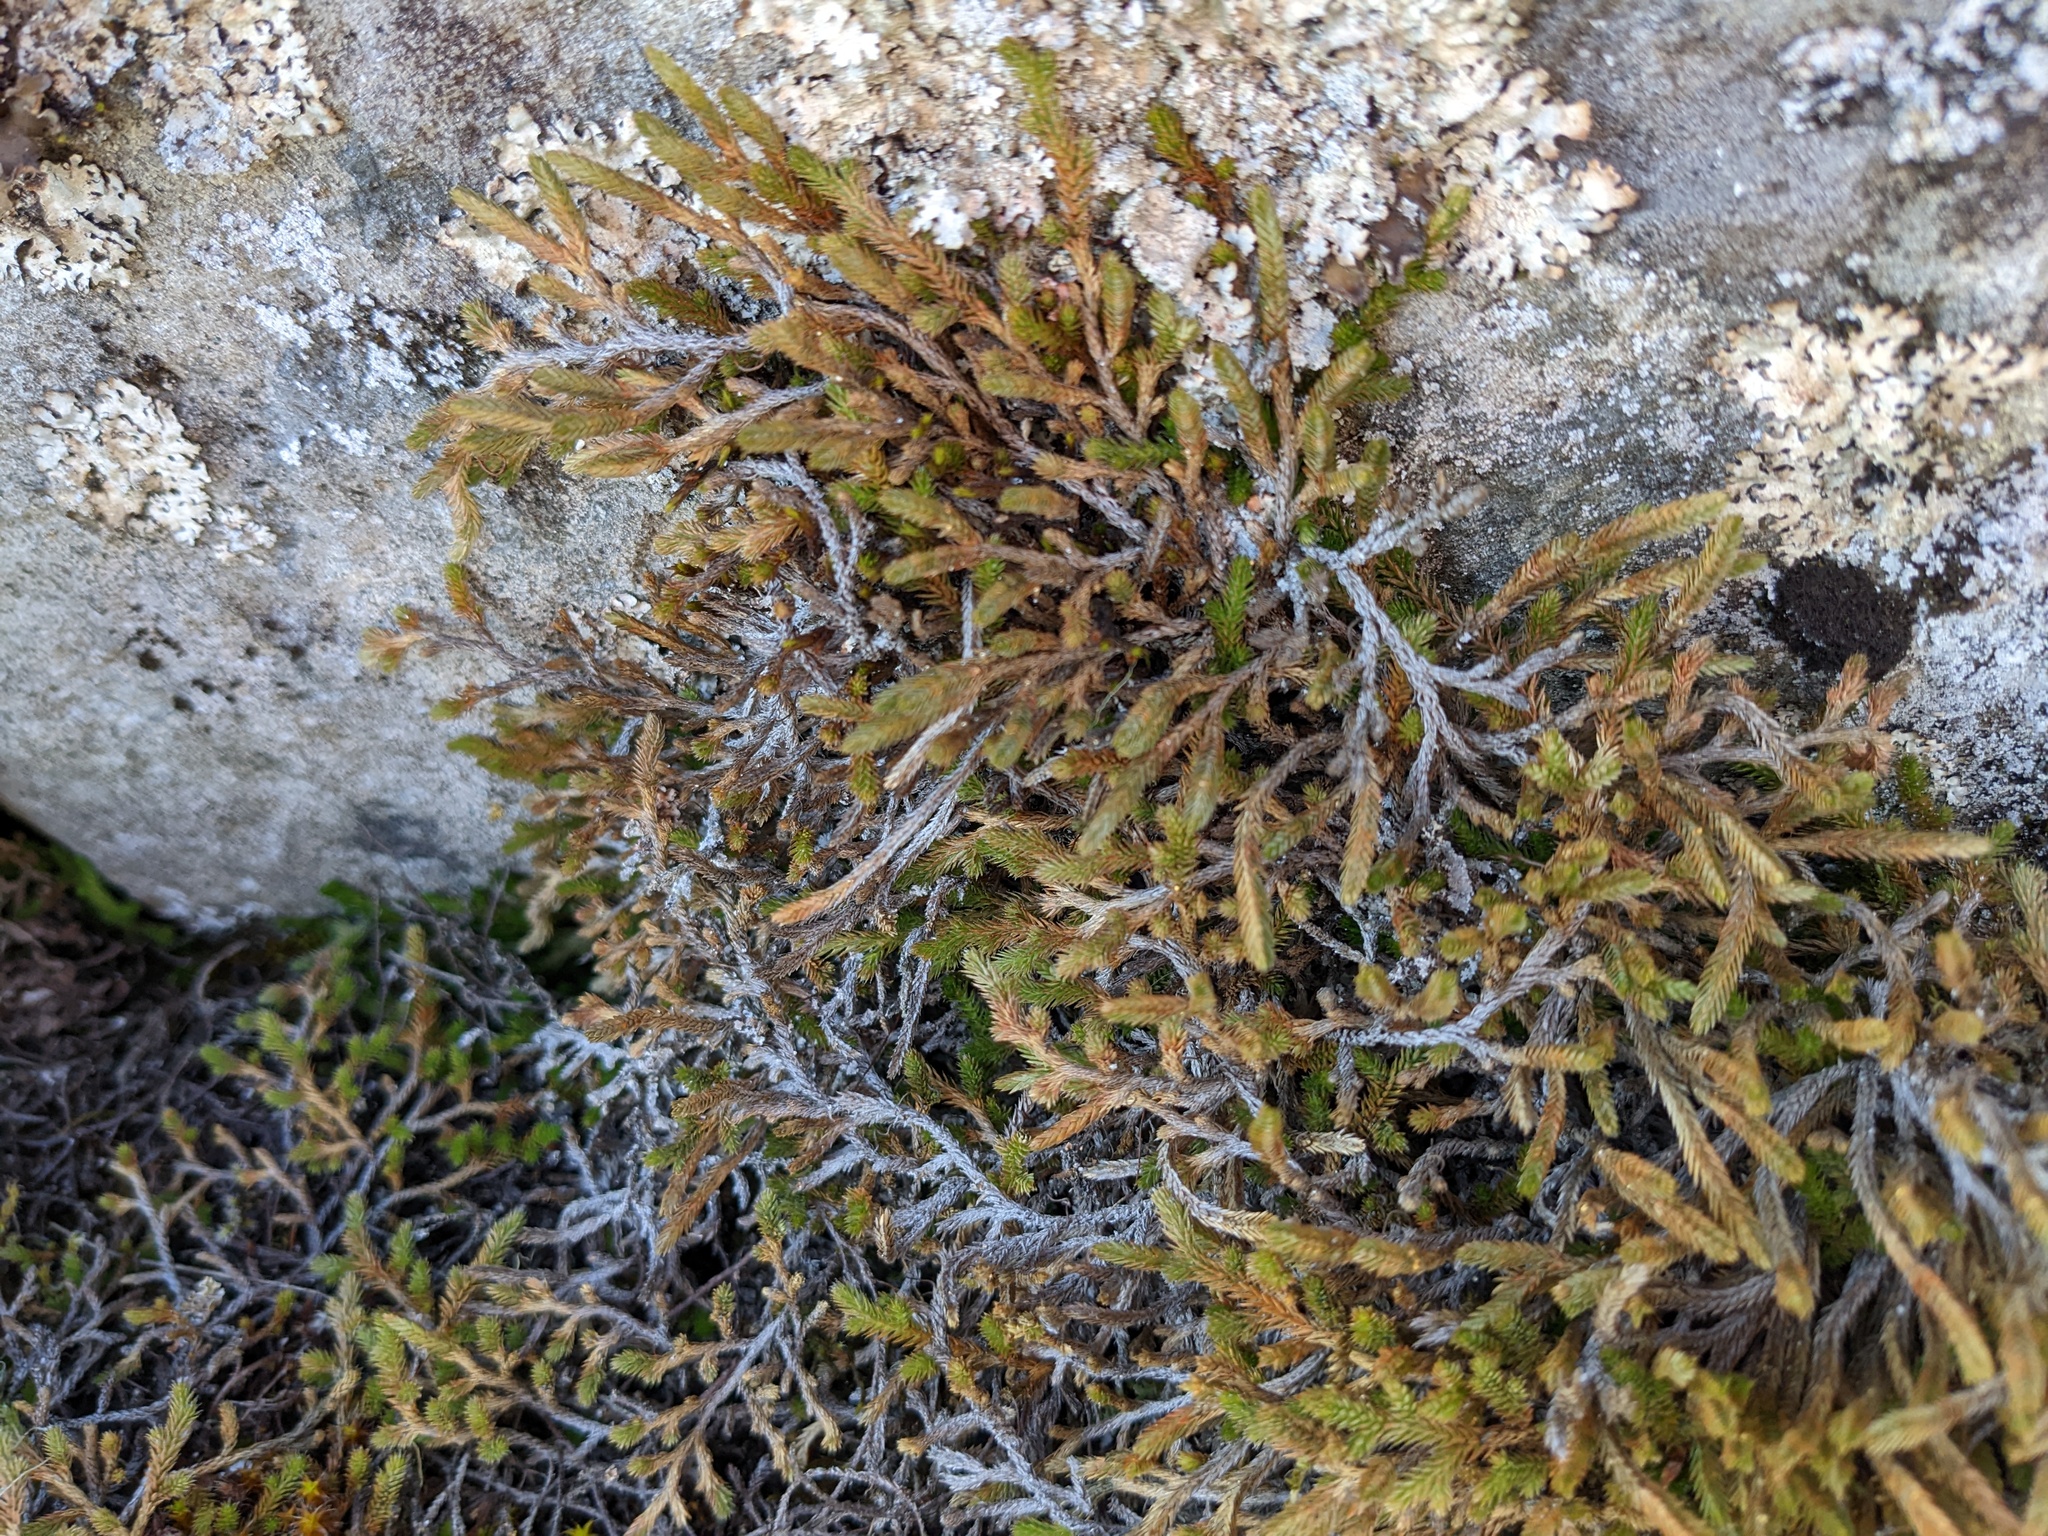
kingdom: Plantae
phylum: Tracheophyta
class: Lycopodiopsida
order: Selaginellales
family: Selaginellaceae
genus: Selaginella
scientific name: Selaginella wallacei
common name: Wallace's selaginella
